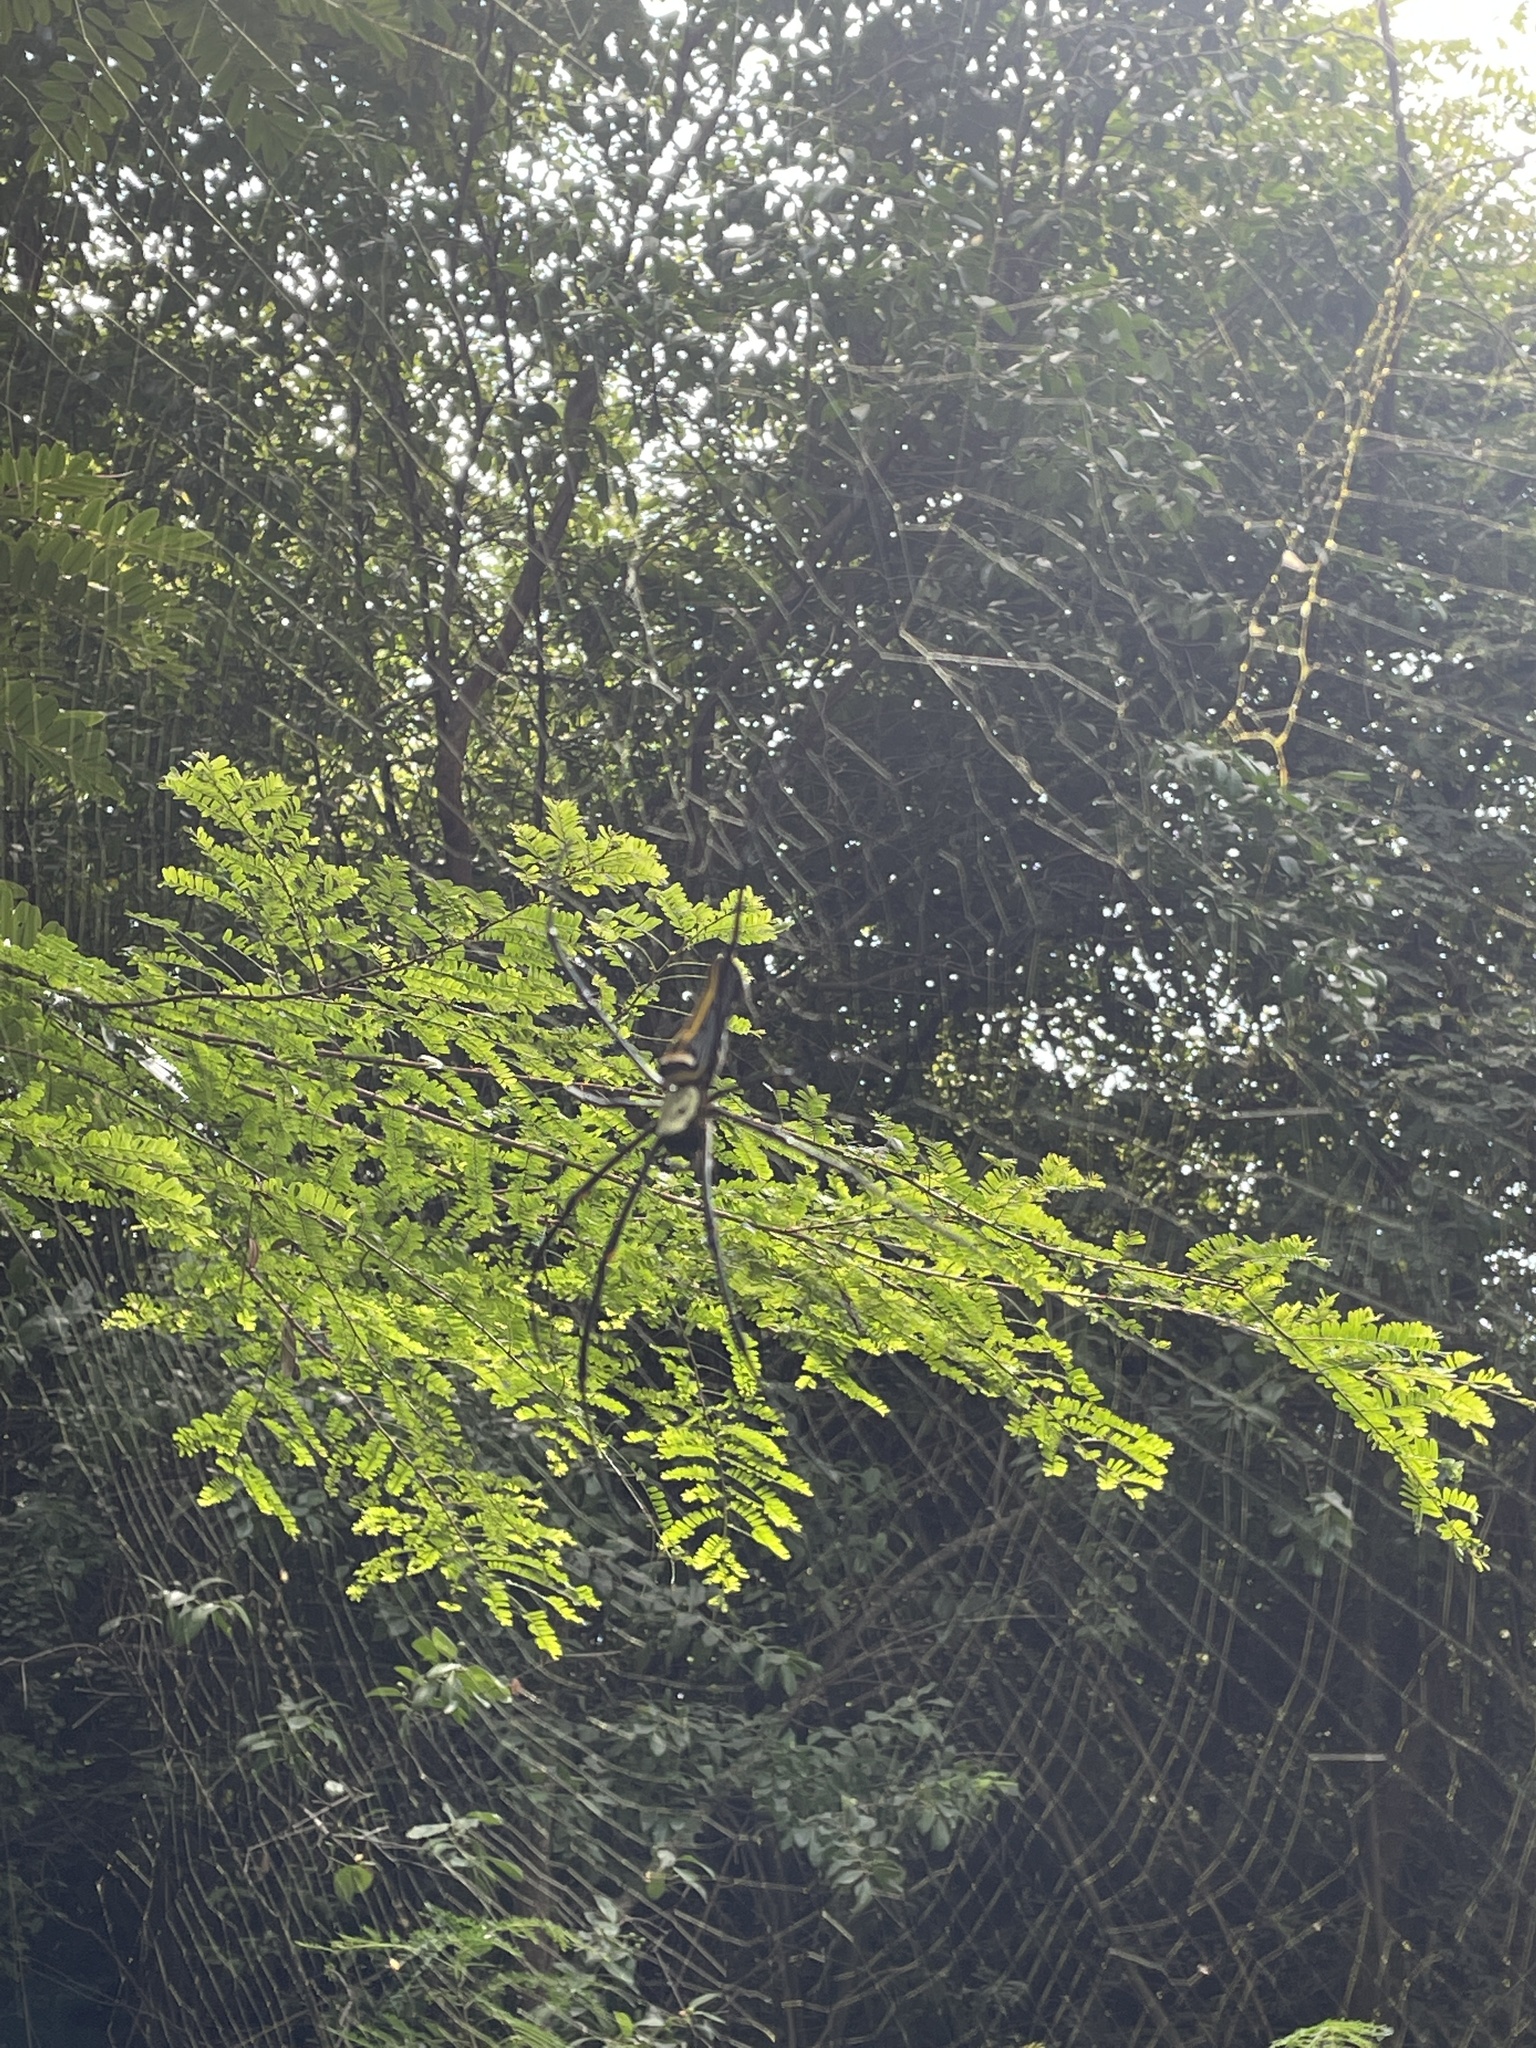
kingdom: Animalia
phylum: Arthropoda
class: Arachnida
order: Araneae
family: Araneidae
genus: Nephila
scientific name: Nephila pilipes
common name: Giant golden orb weaver
